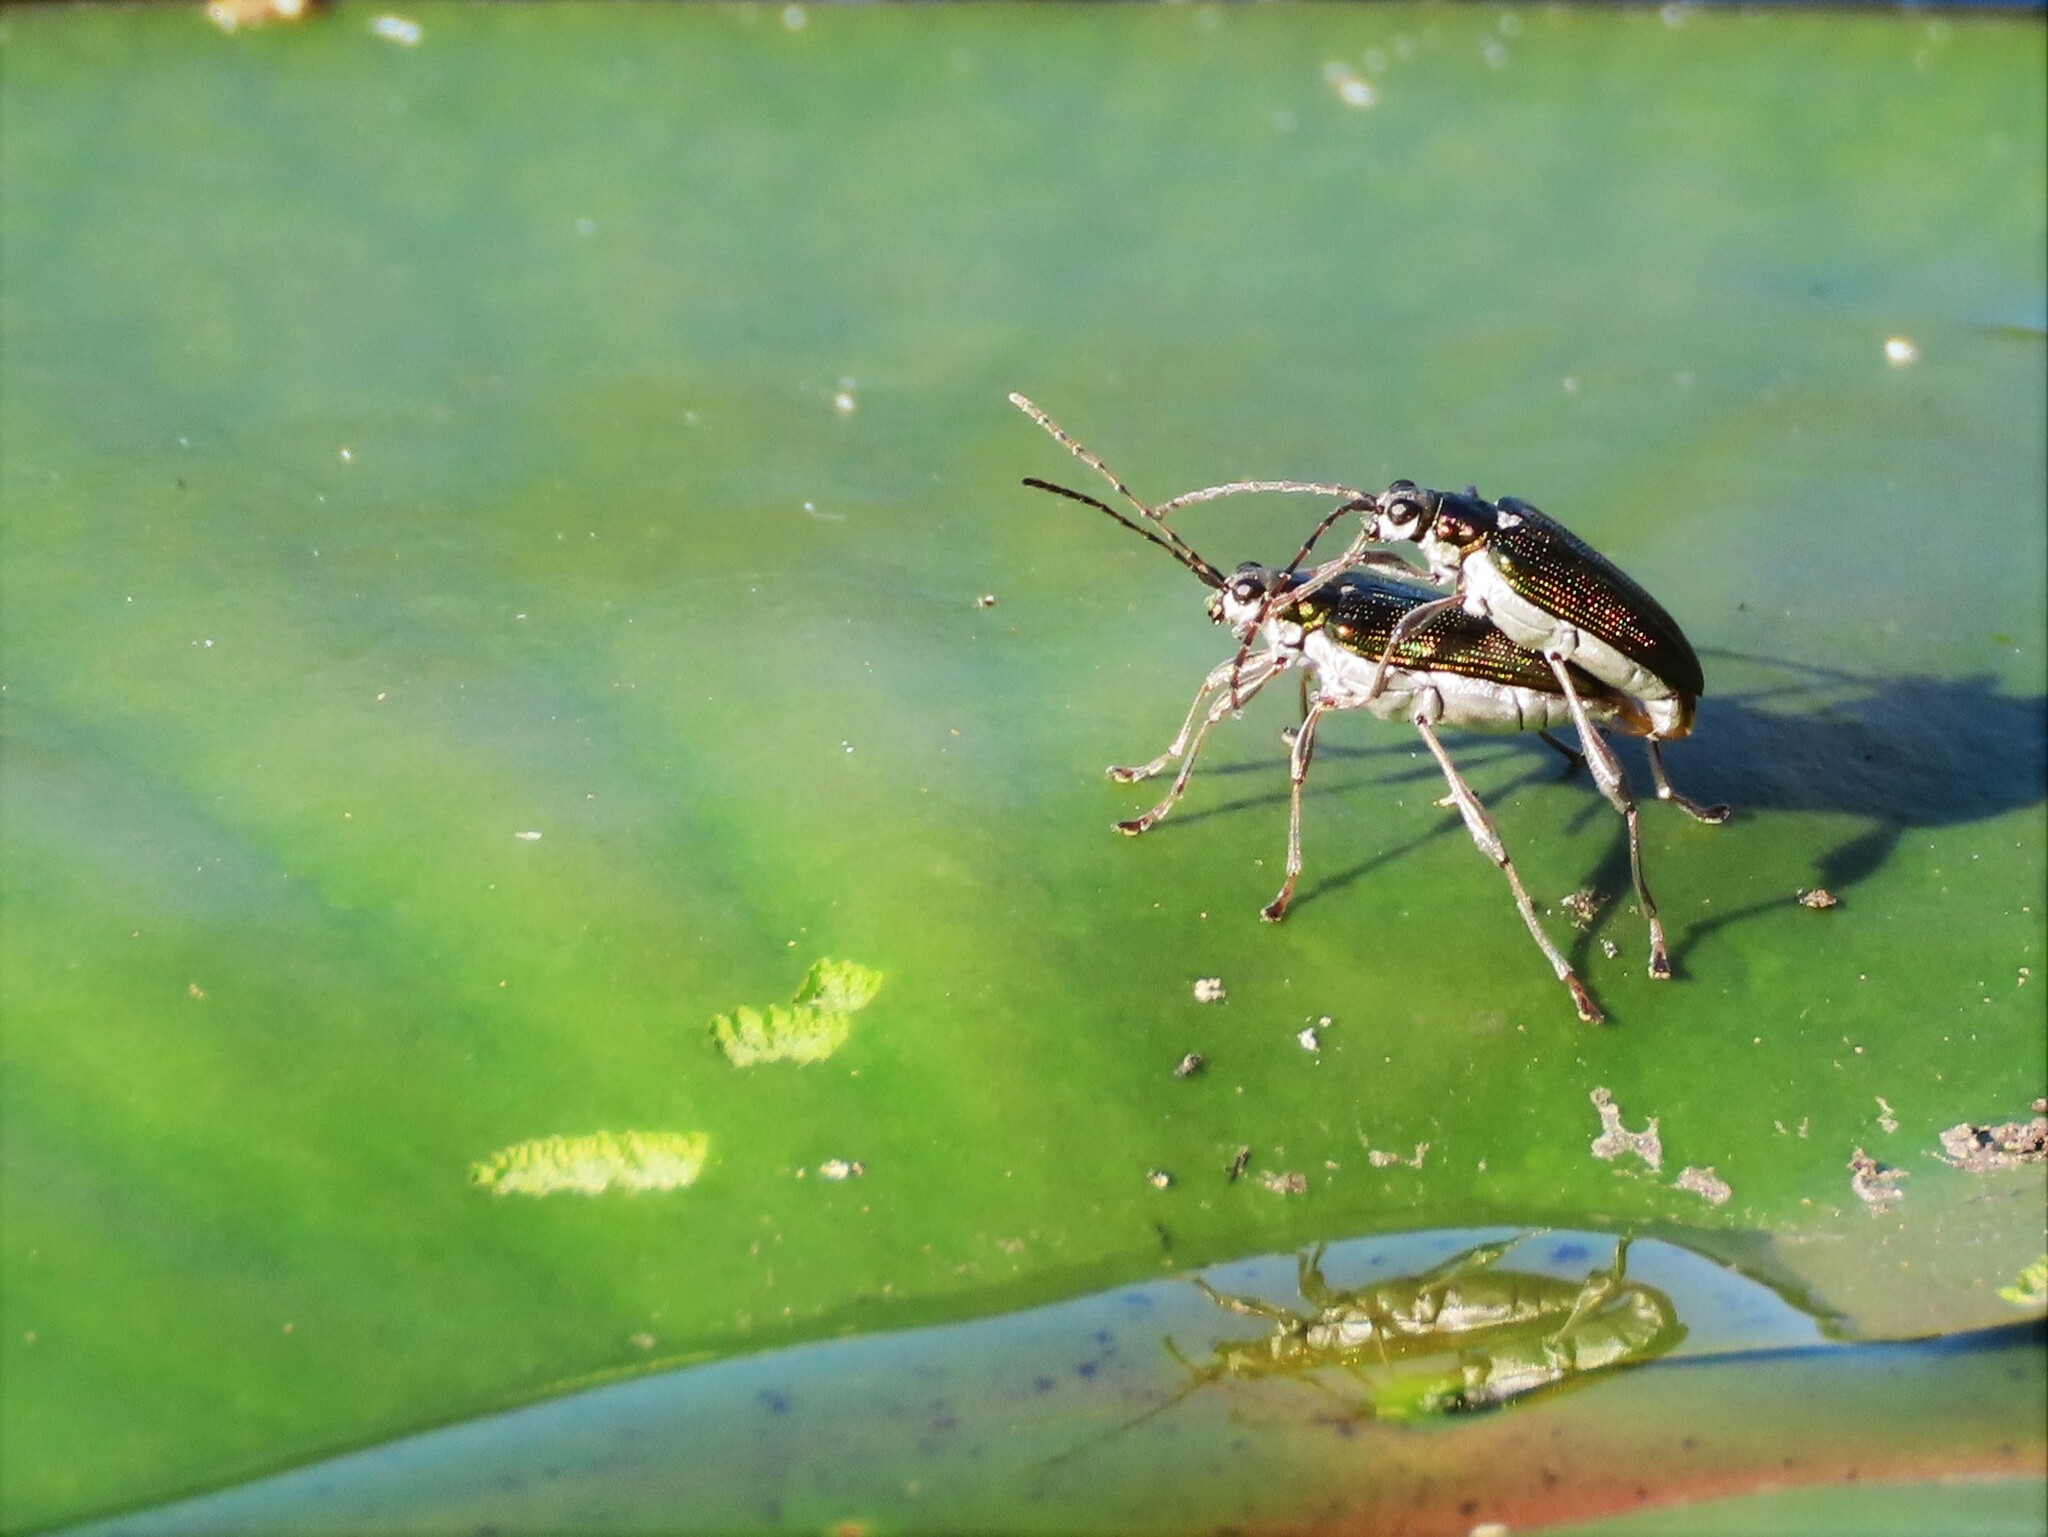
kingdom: Animalia
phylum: Arthropoda
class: Insecta
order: Coleoptera
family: Chrysomelidae
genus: Donacia
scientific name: Donacia proxima
